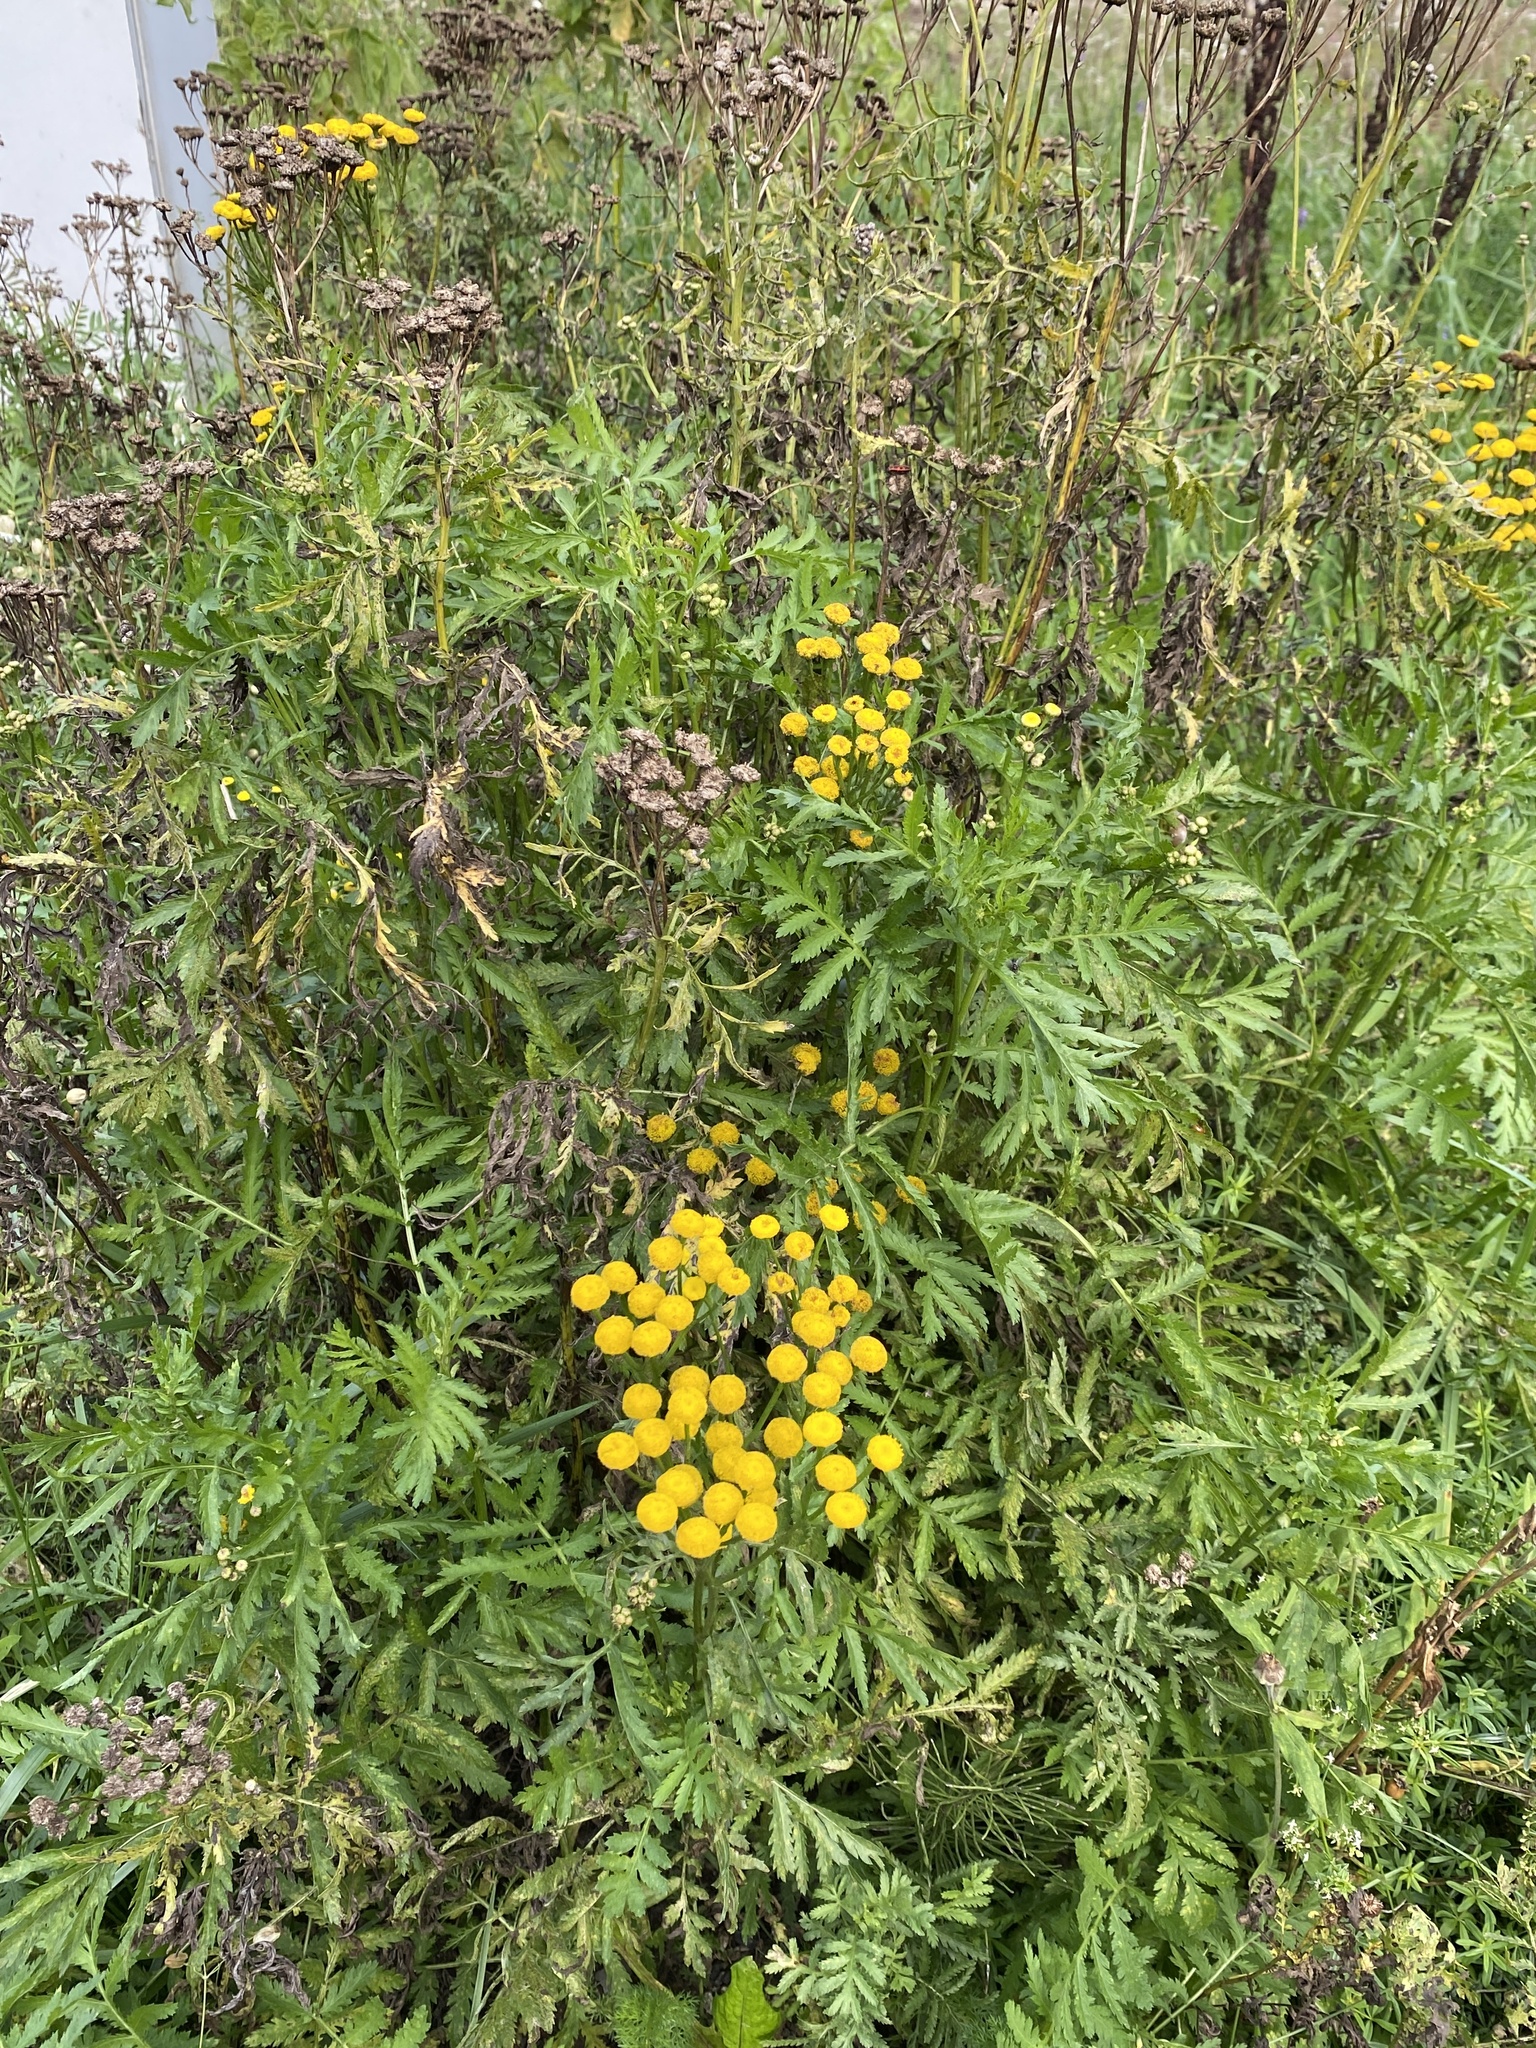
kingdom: Plantae
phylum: Tracheophyta
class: Magnoliopsida
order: Asterales
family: Asteraceae
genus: Tanacetum
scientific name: Tanacetum vulgare
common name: Common tansy
